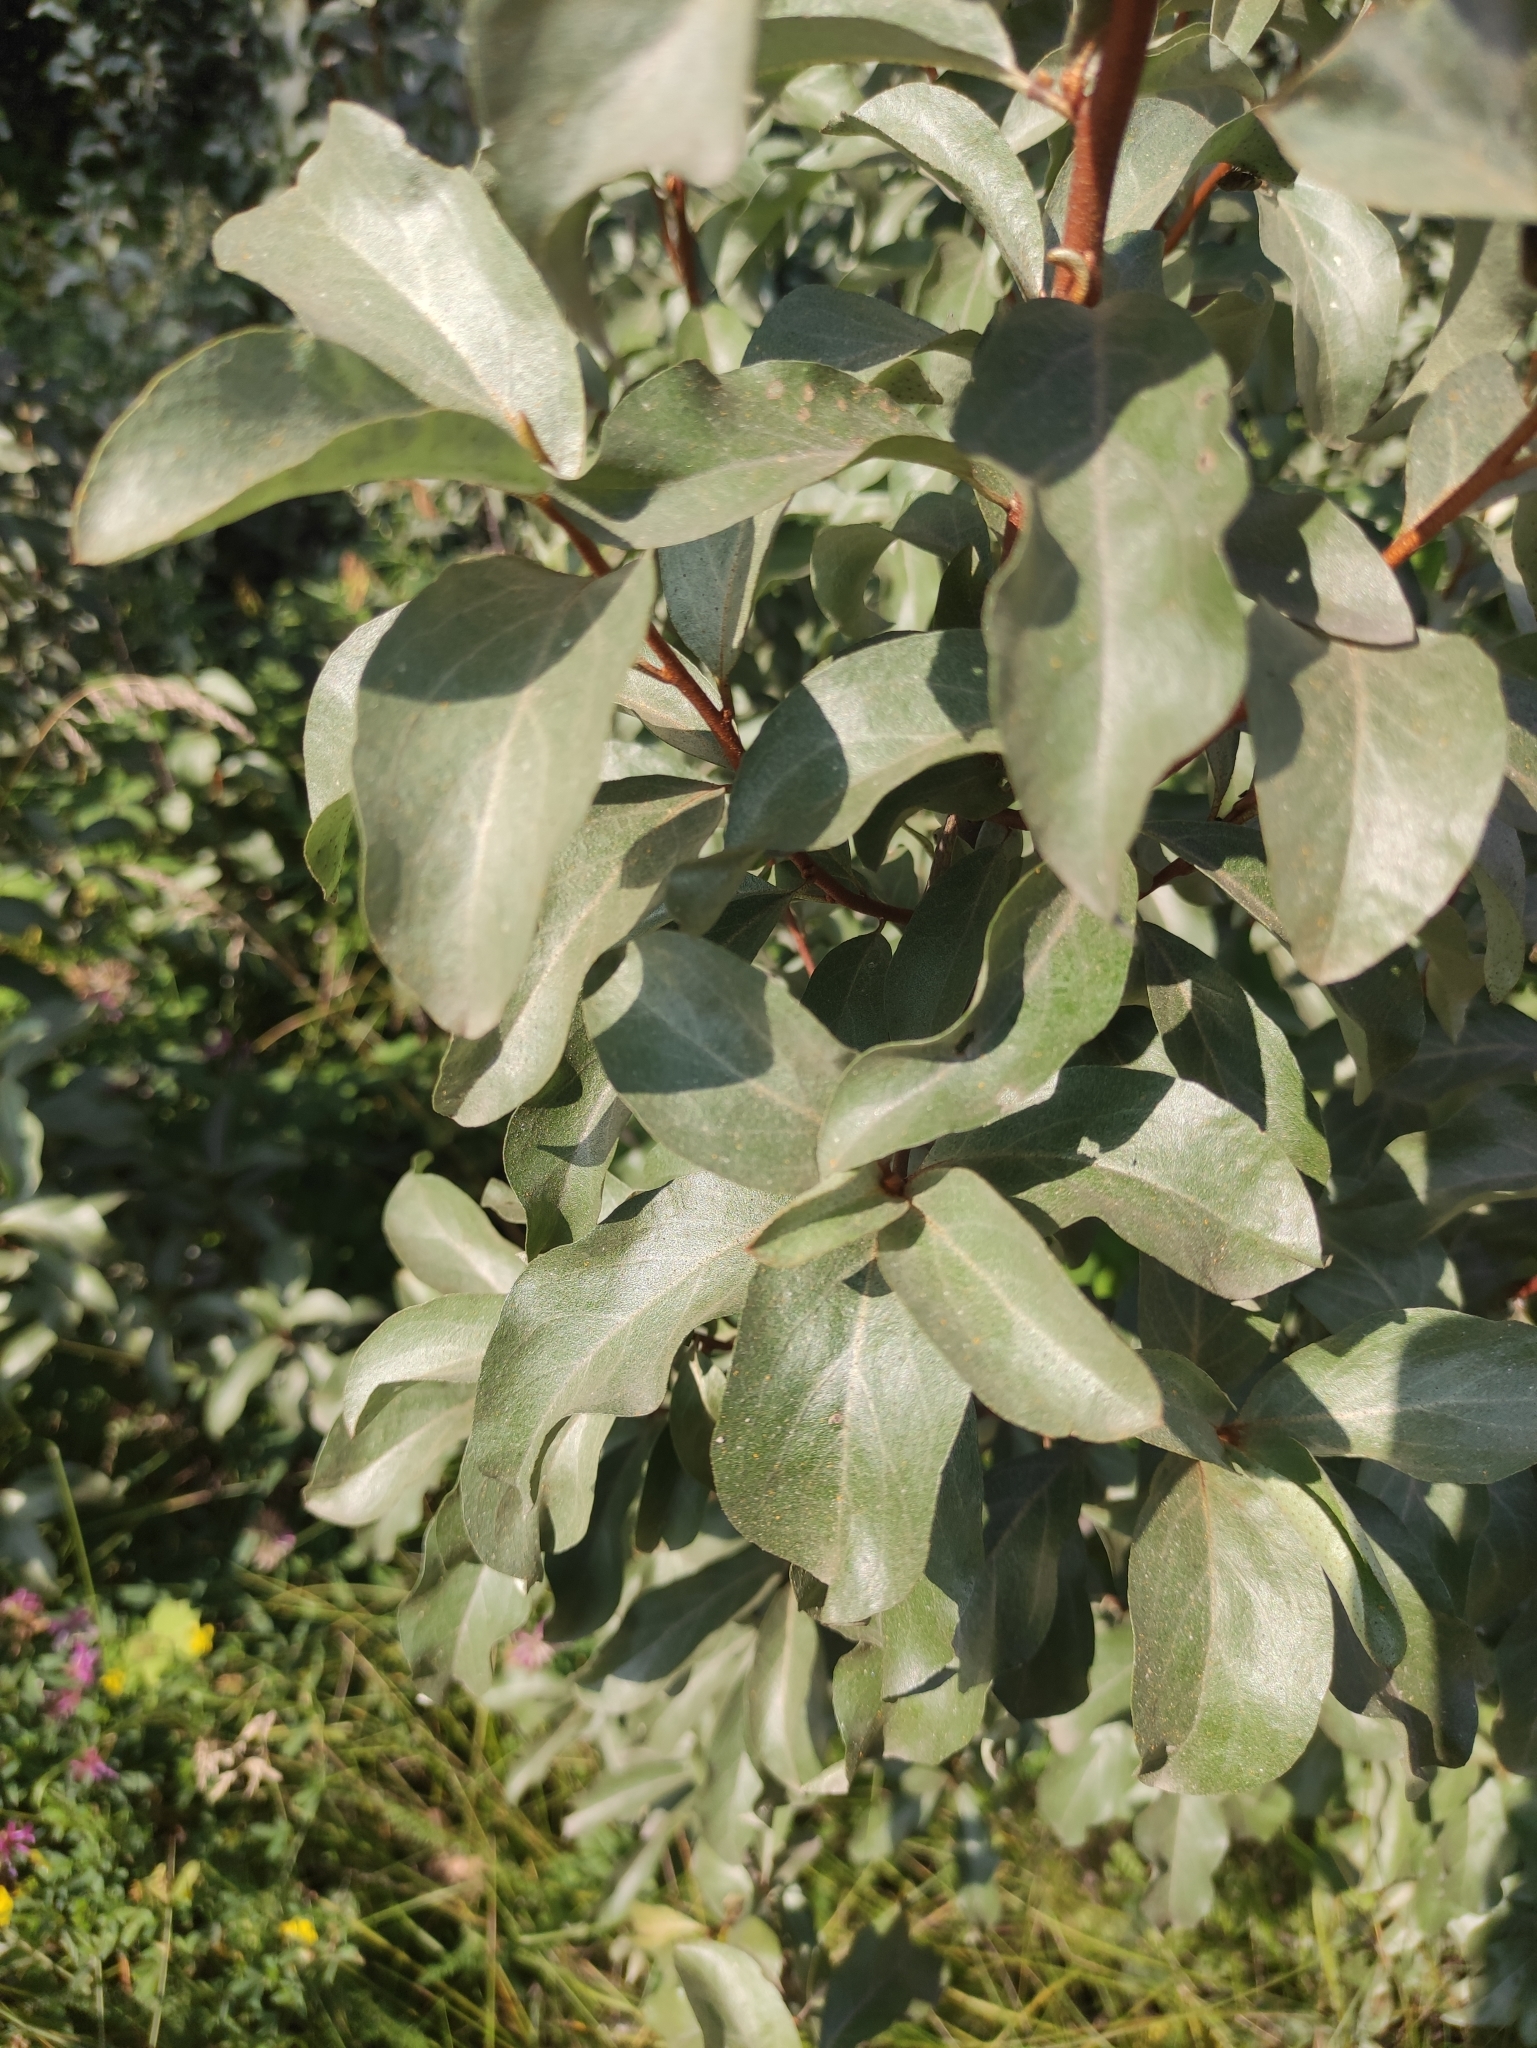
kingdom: Plantae
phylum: Tracheophyta
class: Magnoliopsida
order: Rosales
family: Elaeagnaceae
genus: Elaeagnus
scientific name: Elaeagnus commutata
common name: Silverberry
